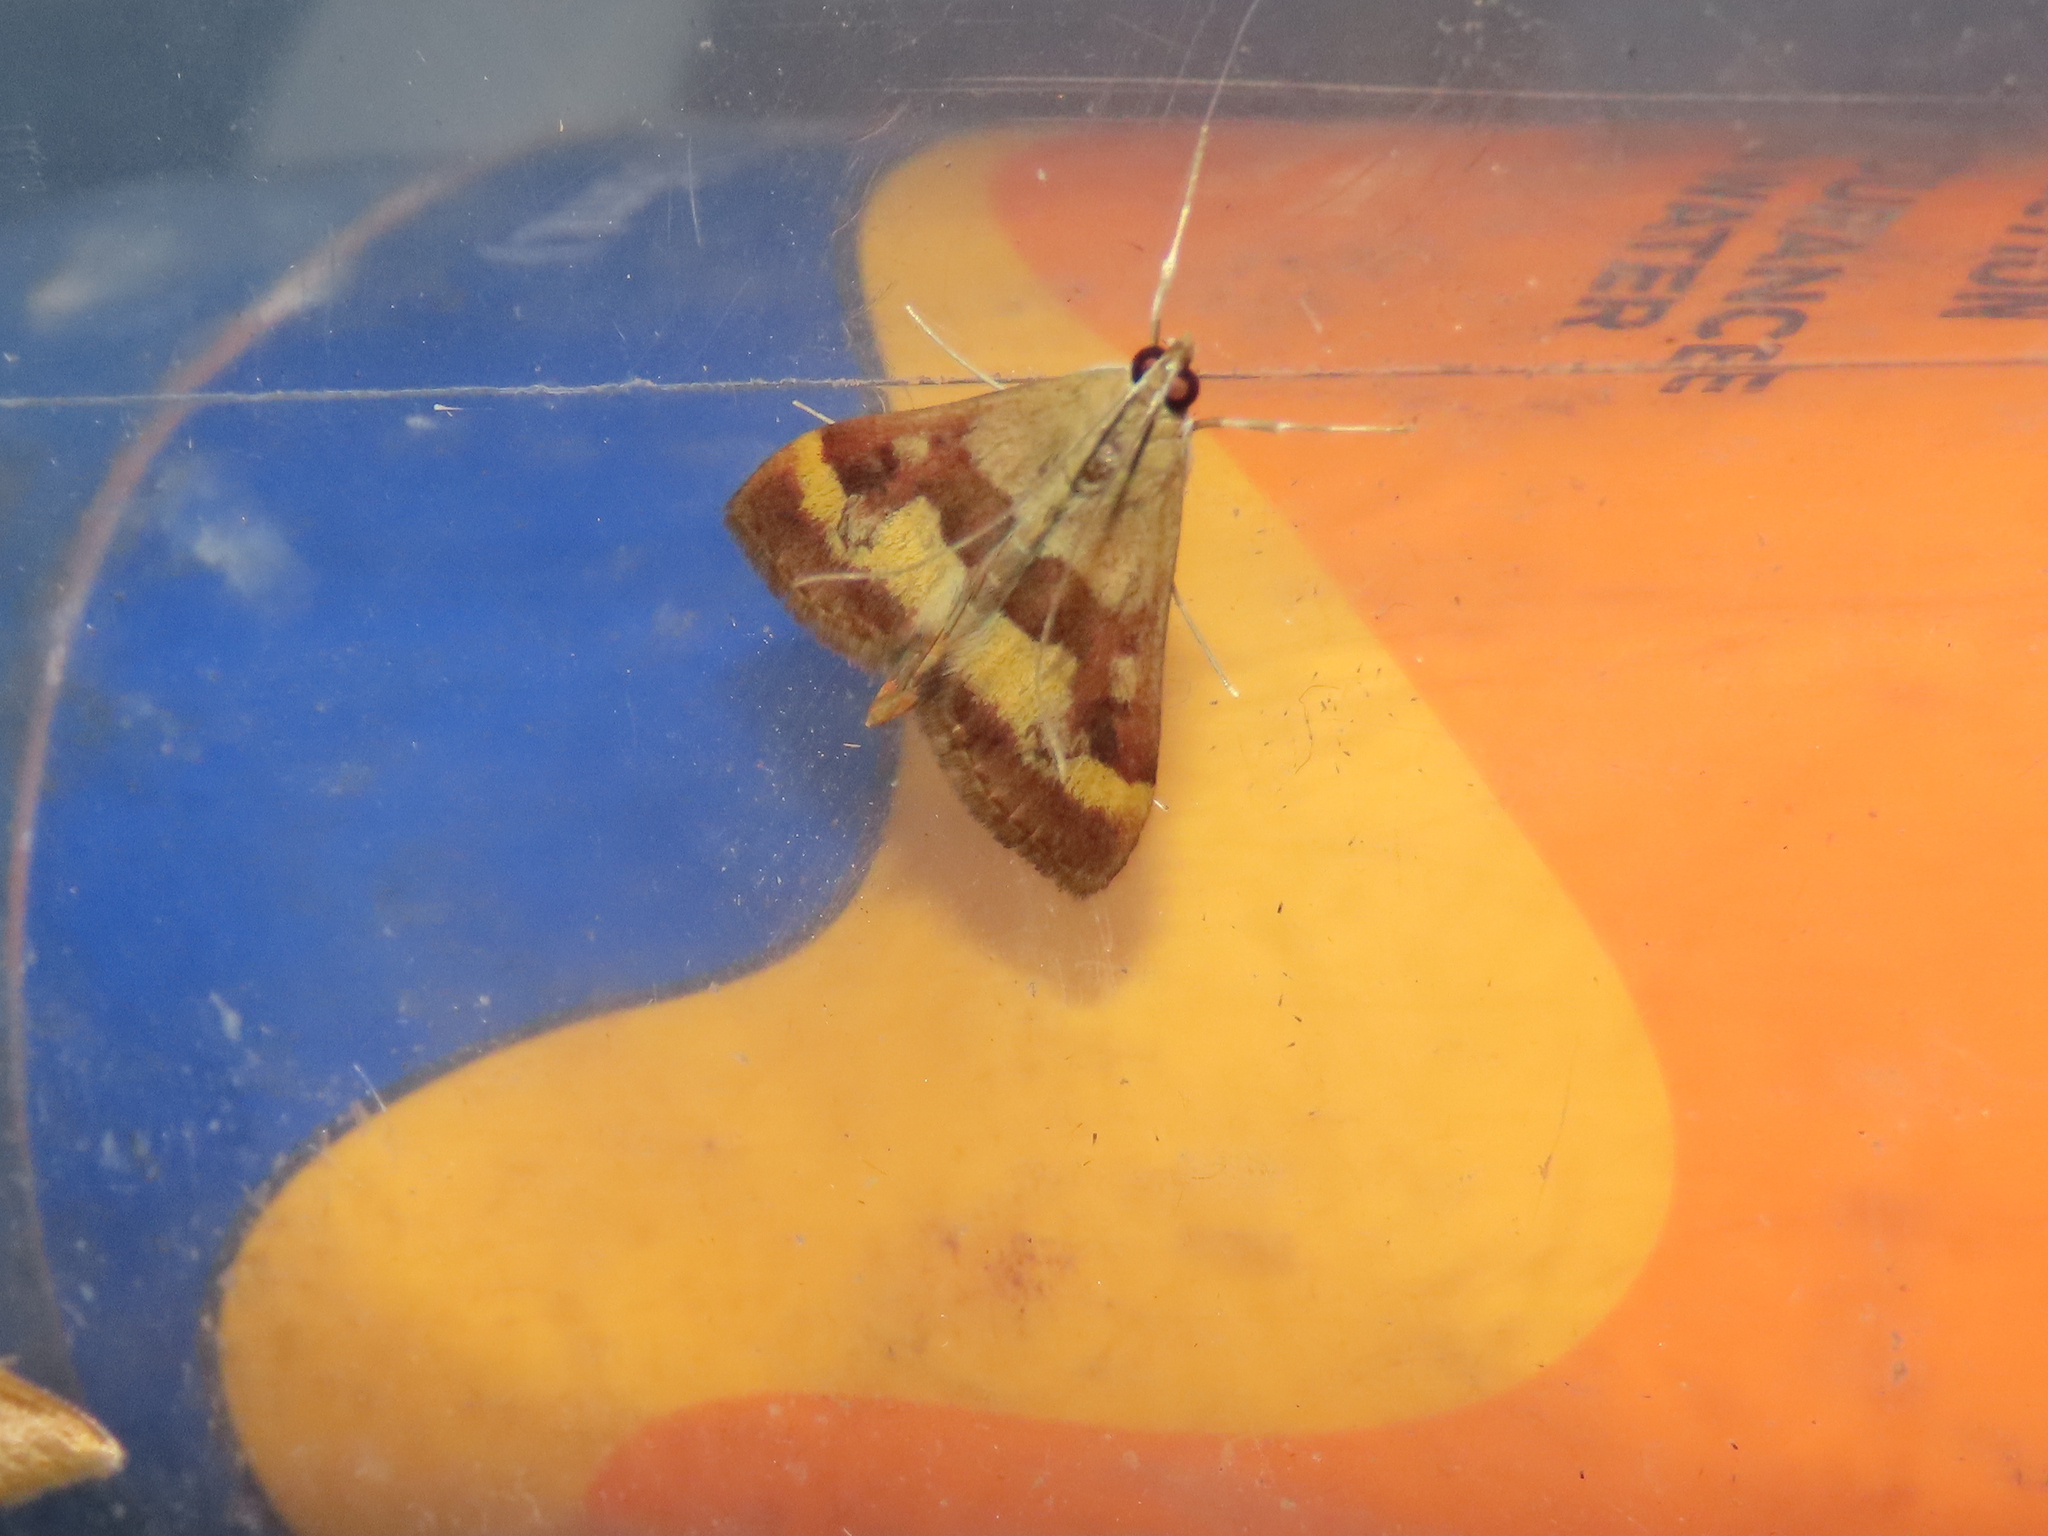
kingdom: Animalia
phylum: Arthropoda
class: Insecta
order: Lepidoptera
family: Crambidae
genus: Pyrausta
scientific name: Pyrausta flavofascialis
